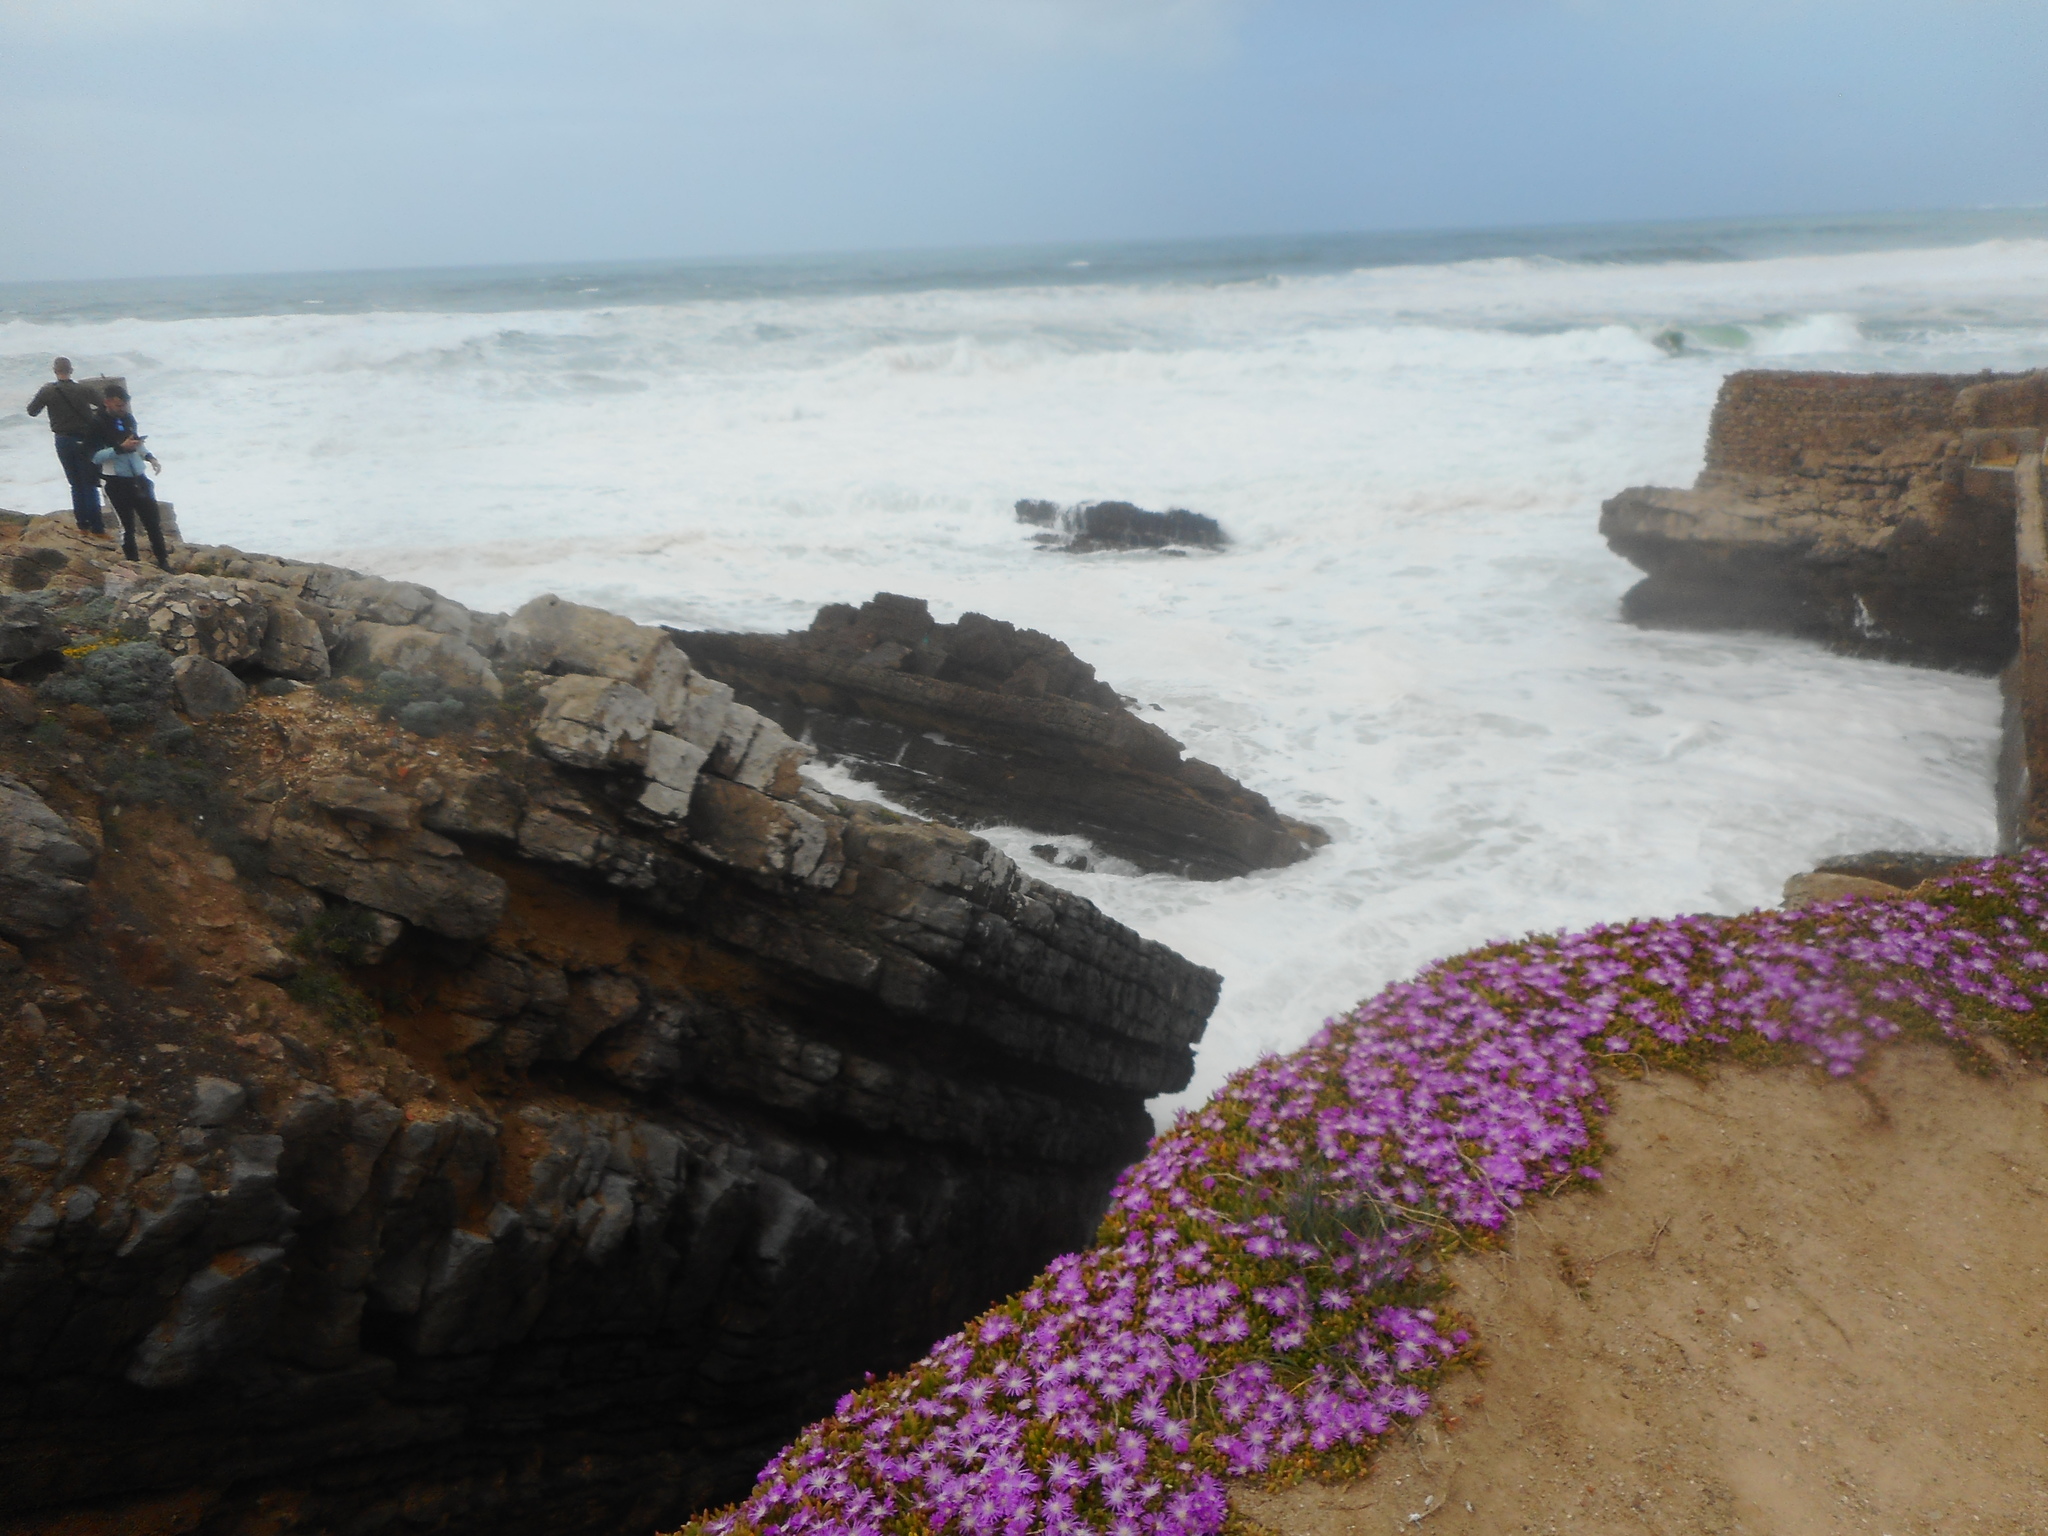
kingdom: Plantae
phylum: Tracheophyta
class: Magnoliopsida
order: Caryophyllales
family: Aizoaceae
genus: Drosanthemum
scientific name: Drosanthemum floribundum
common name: Pale dewplant
